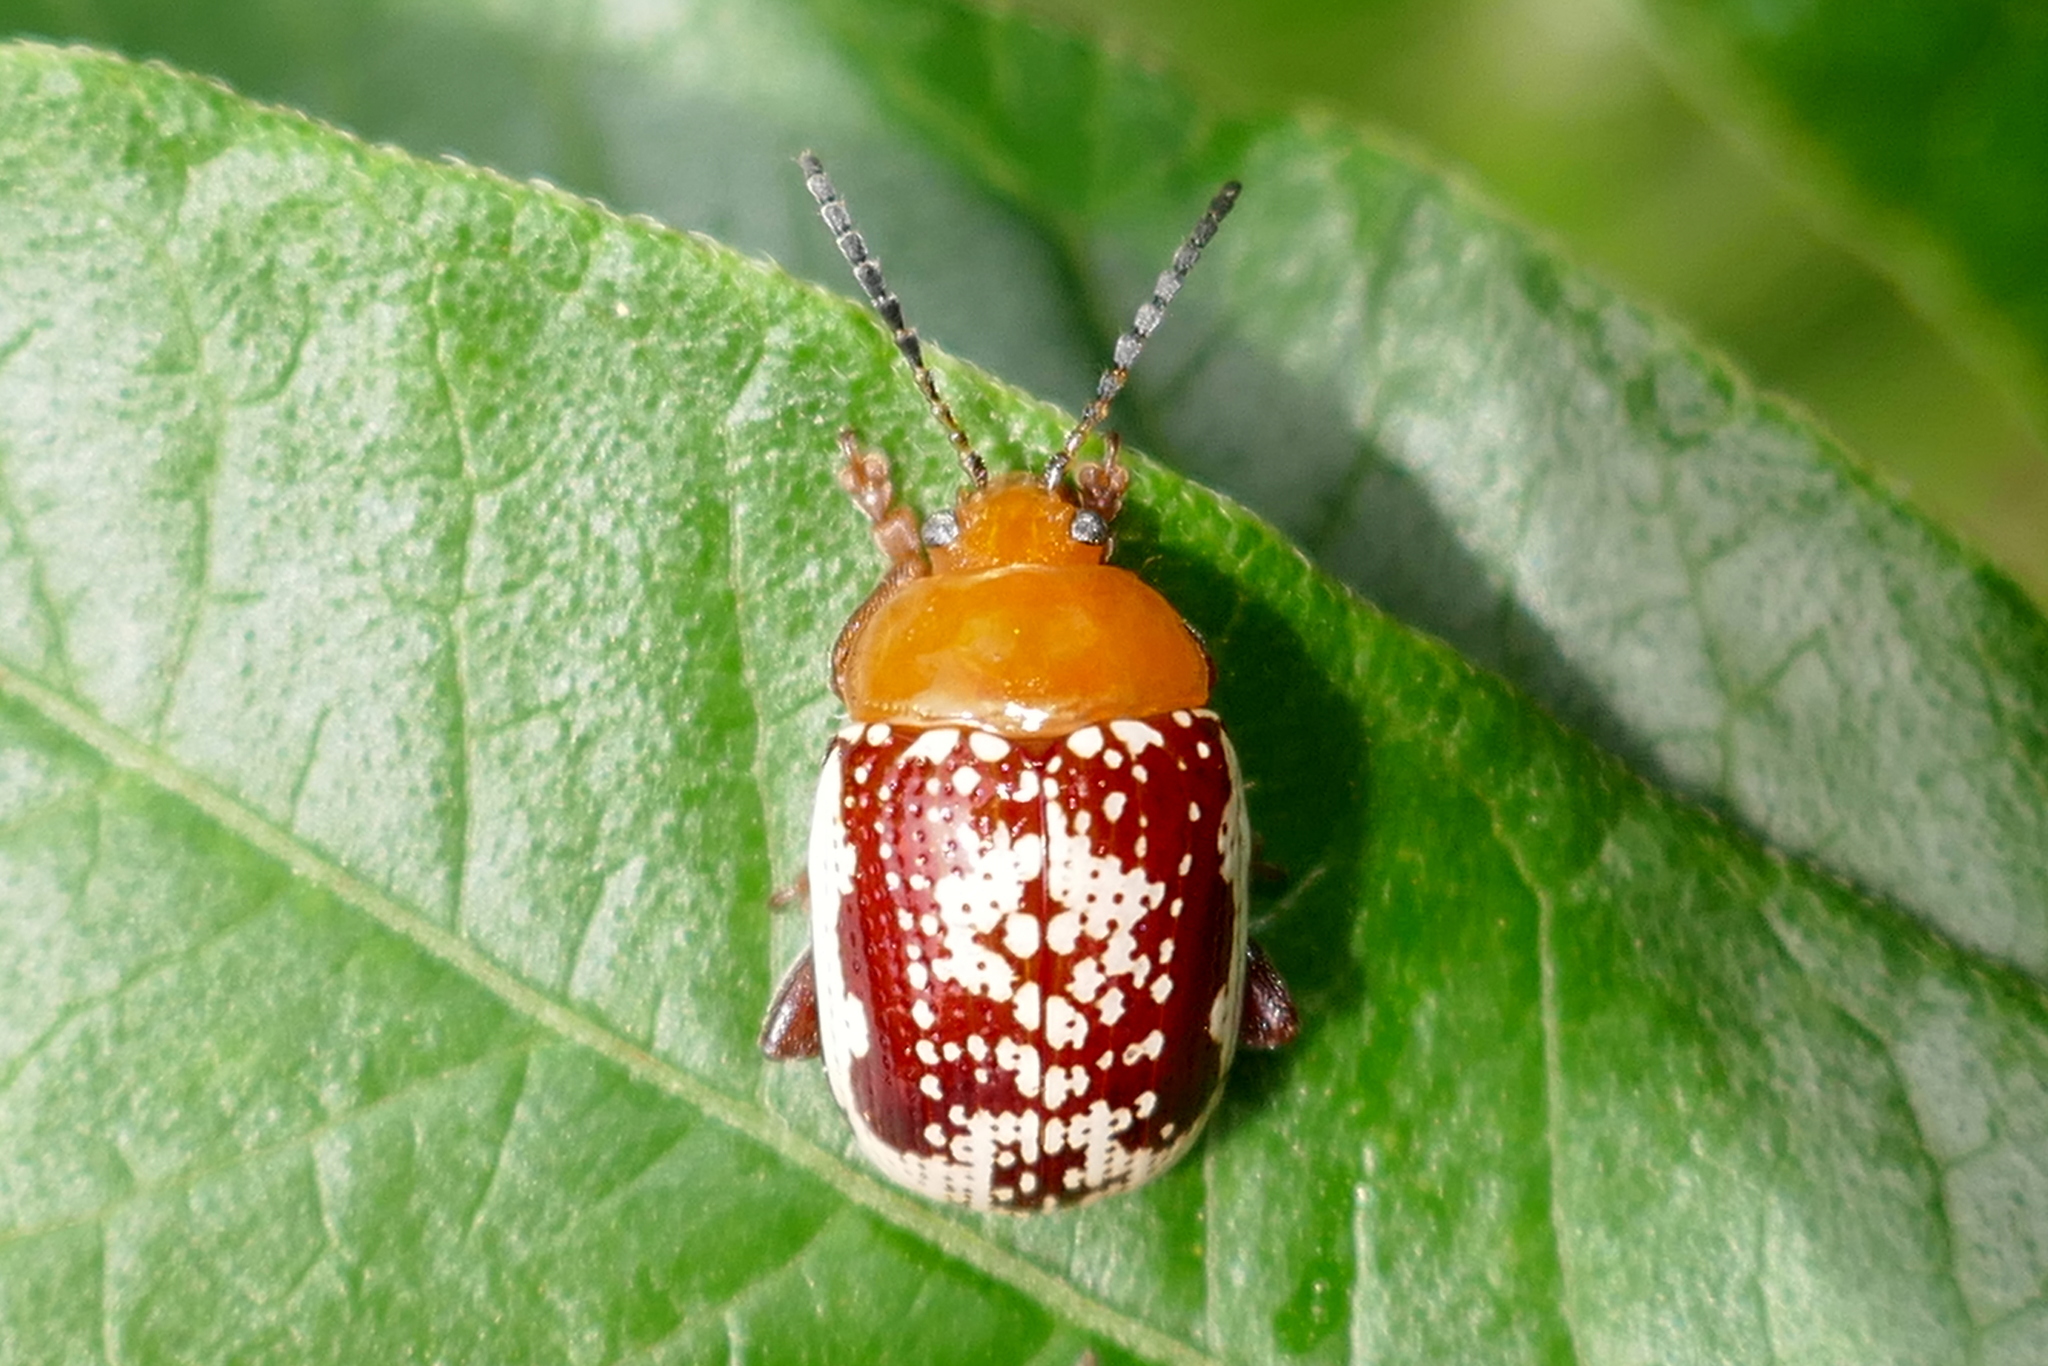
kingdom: Animalia
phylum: Arthropoda
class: Insecta
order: Coleoptera
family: Chrysomelidae
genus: Blepharida
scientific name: Blepharida rhois
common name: Sumac flea beetle
